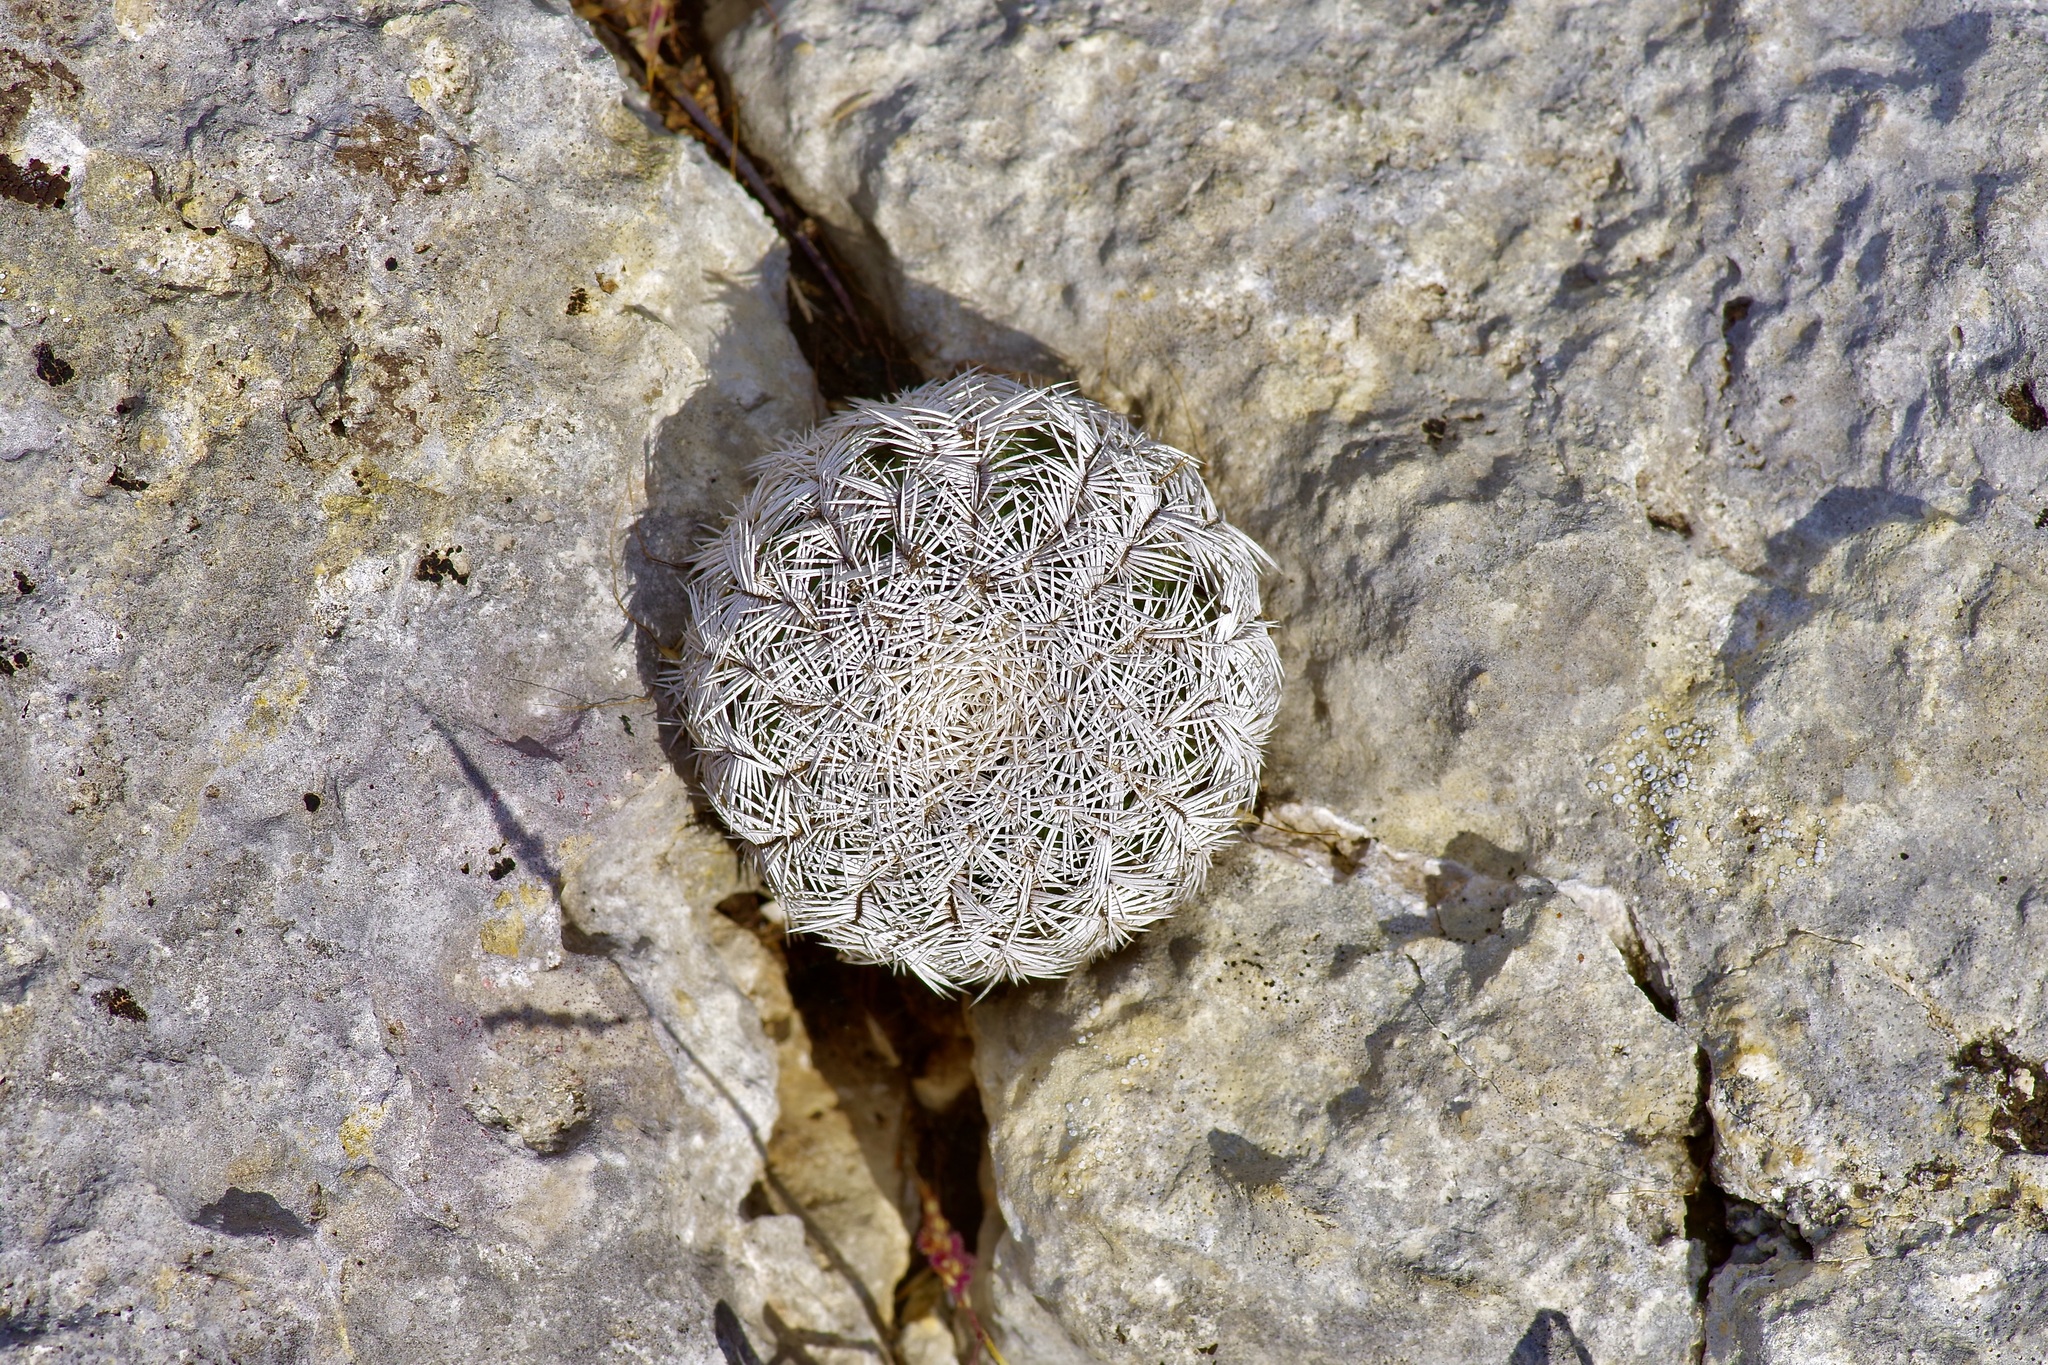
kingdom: Plantae
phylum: Tracheophyta
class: Magnoliopsida
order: Caryophyllales
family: Cactaceae
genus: Echinocereus
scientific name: Echinocereus reichenbachii
